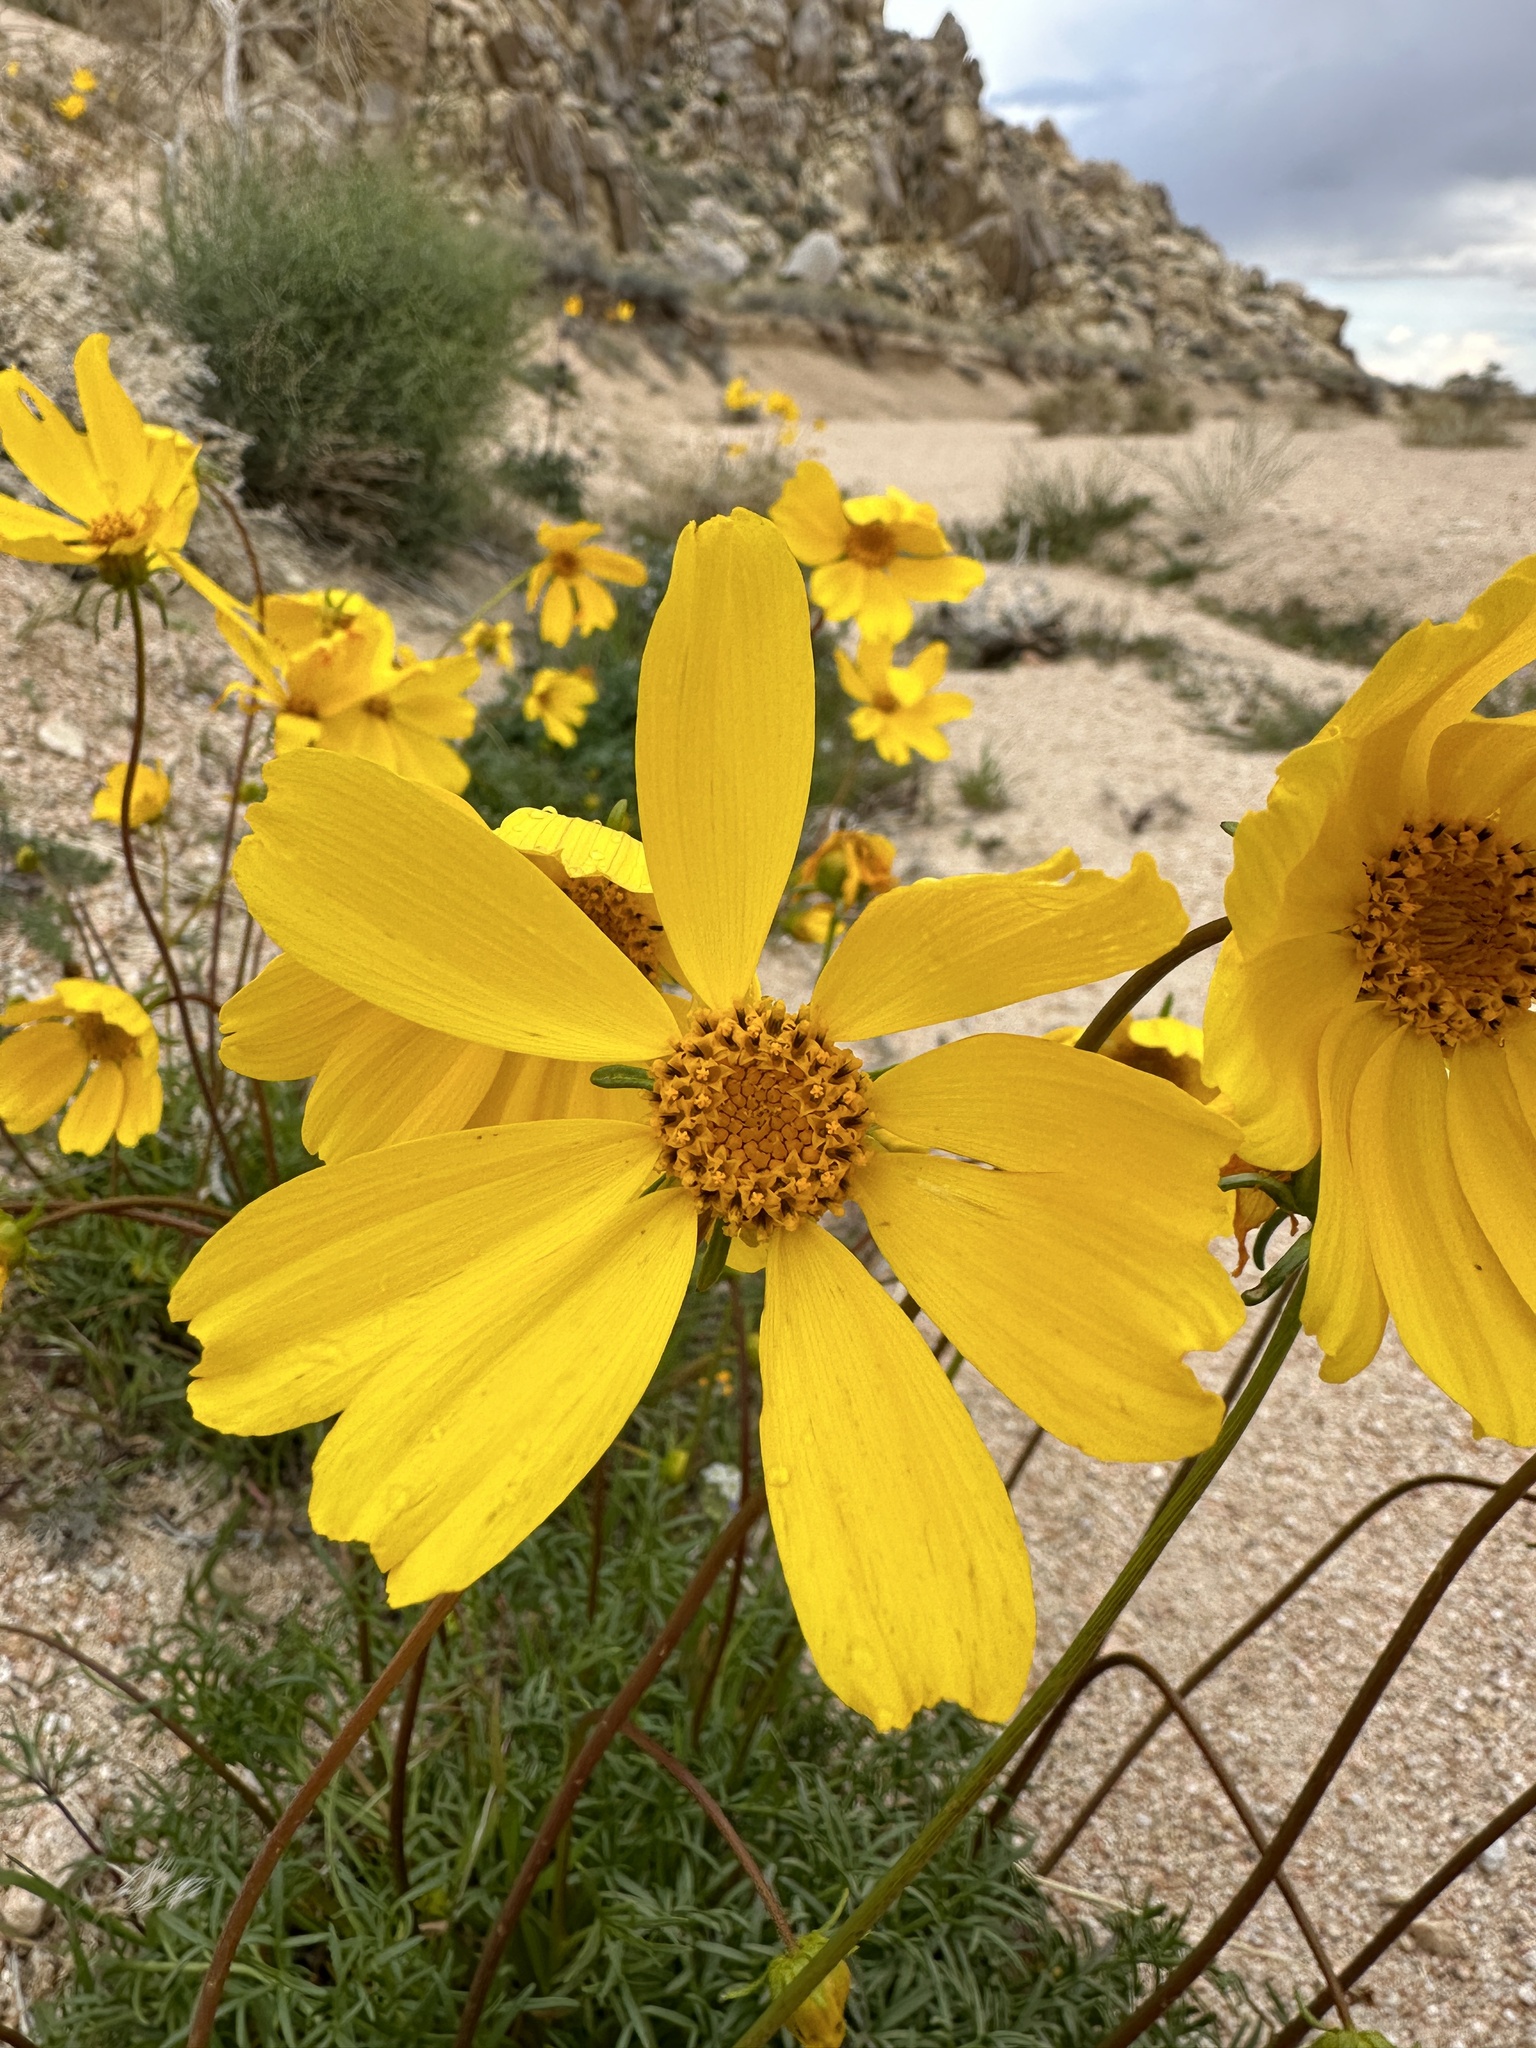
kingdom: Plantae
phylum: Tracheophyta
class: Magnoliopsida
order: Asterales
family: Asteraceae
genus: Coreopsis
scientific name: Coreopsis bigelovii
